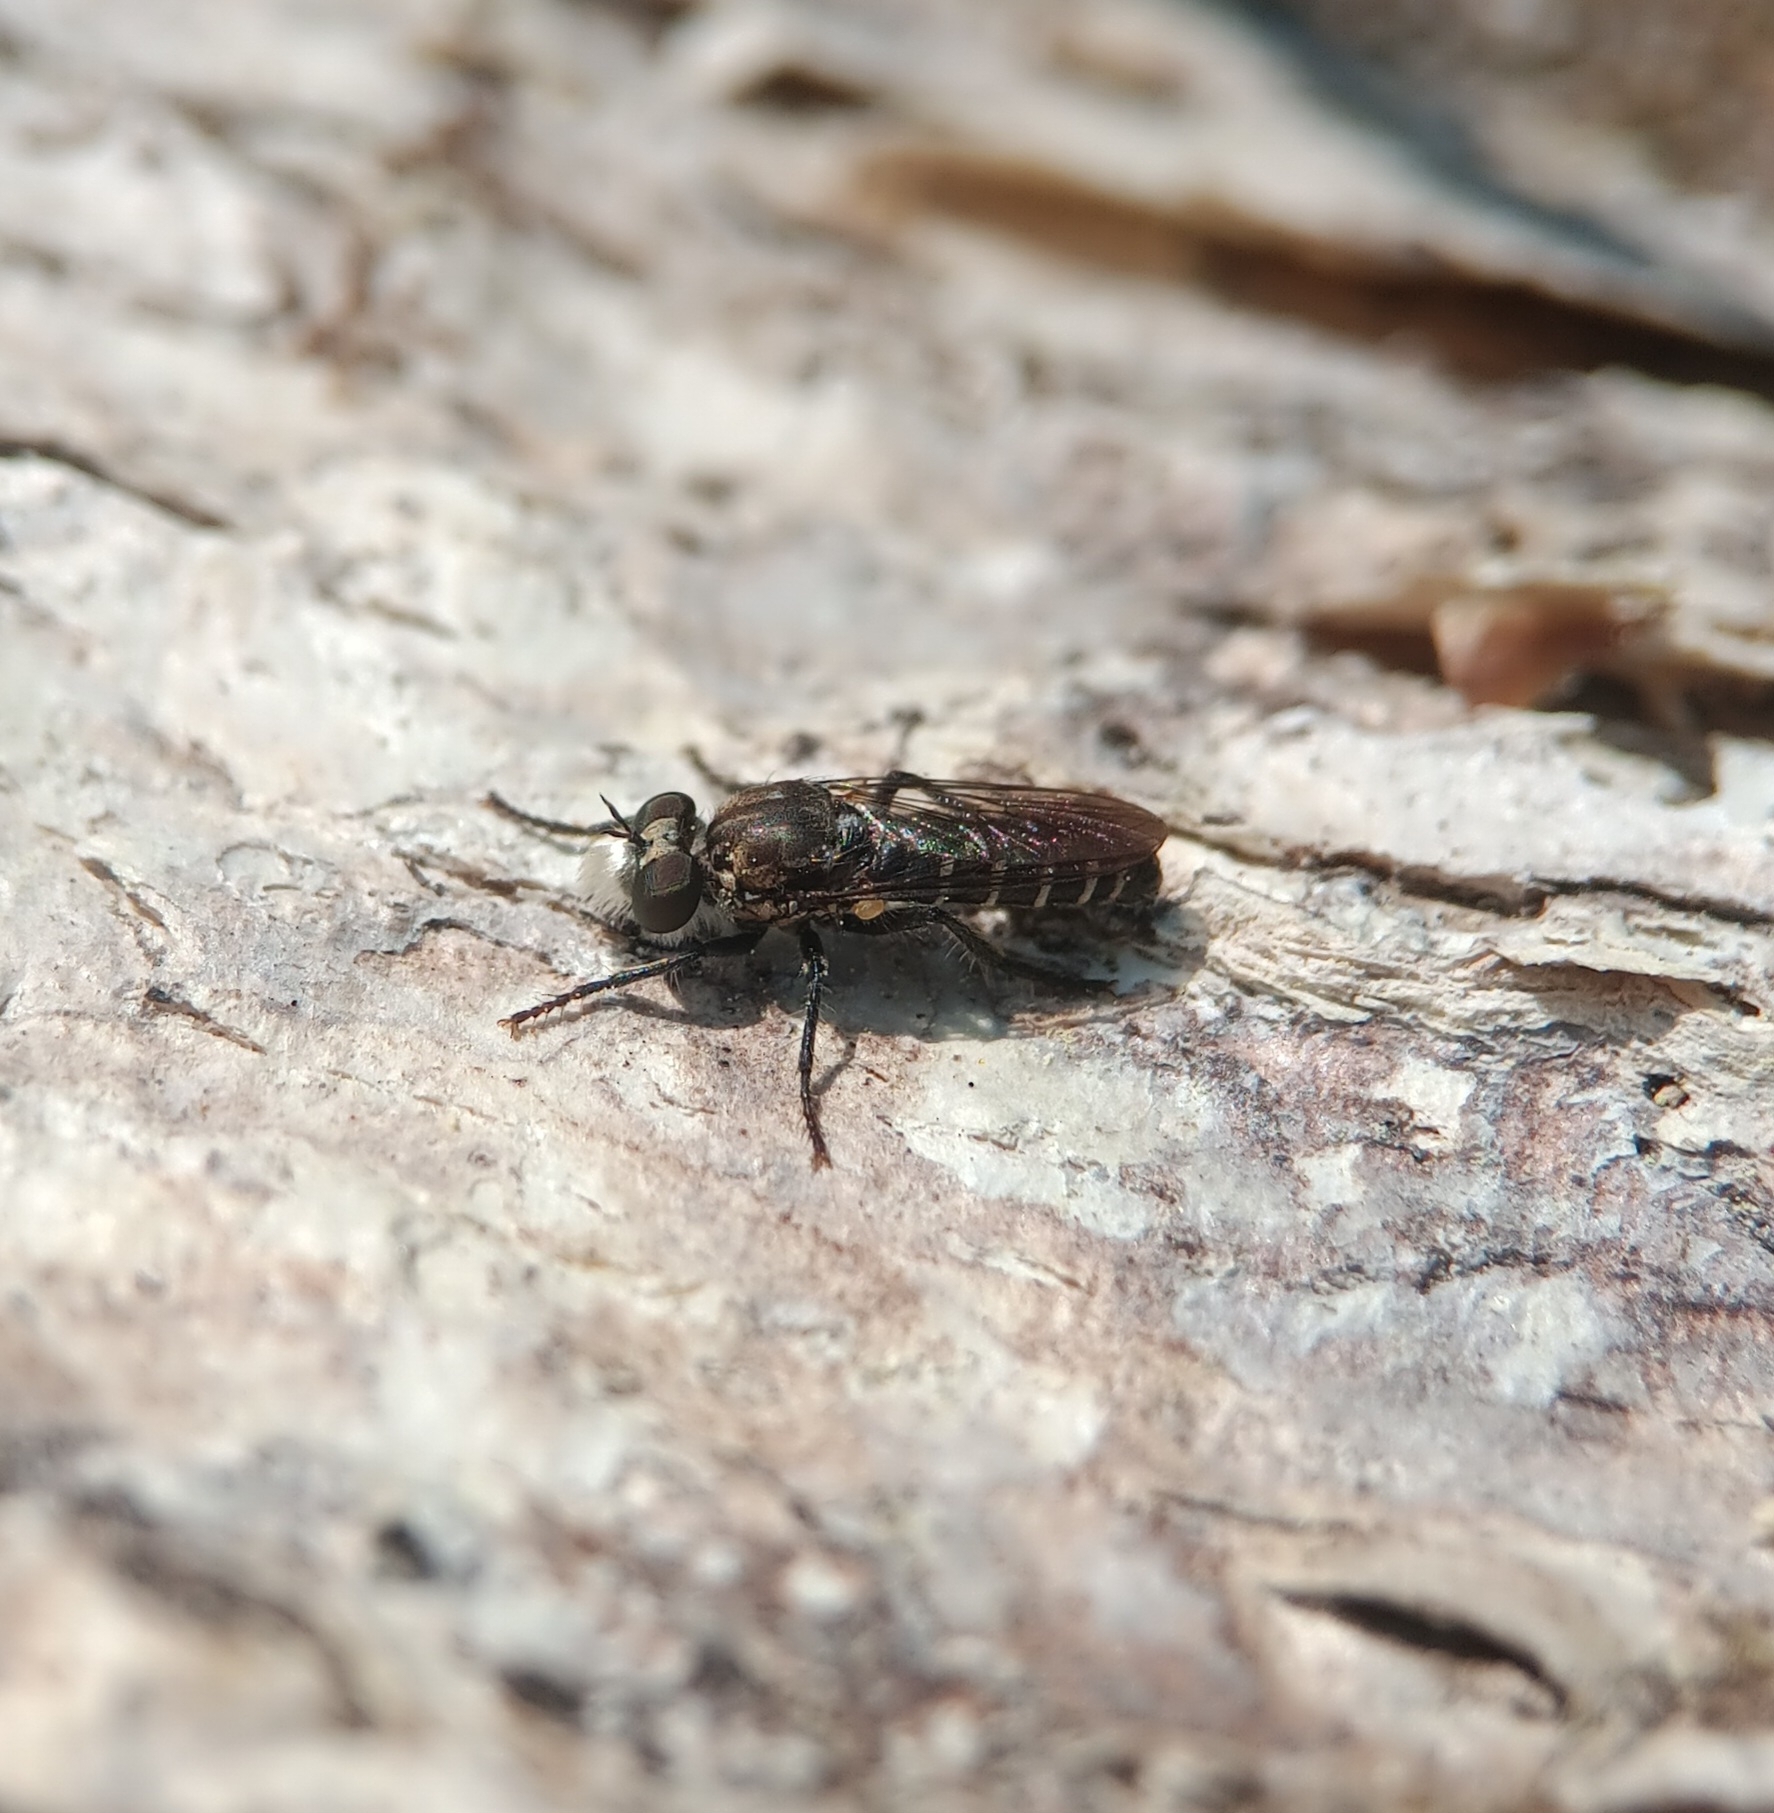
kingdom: Animalia
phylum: Arthropoda
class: Insecta
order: Diptera
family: Asilidae
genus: Cyrtopogon
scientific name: Cyrtopogon lutatius
